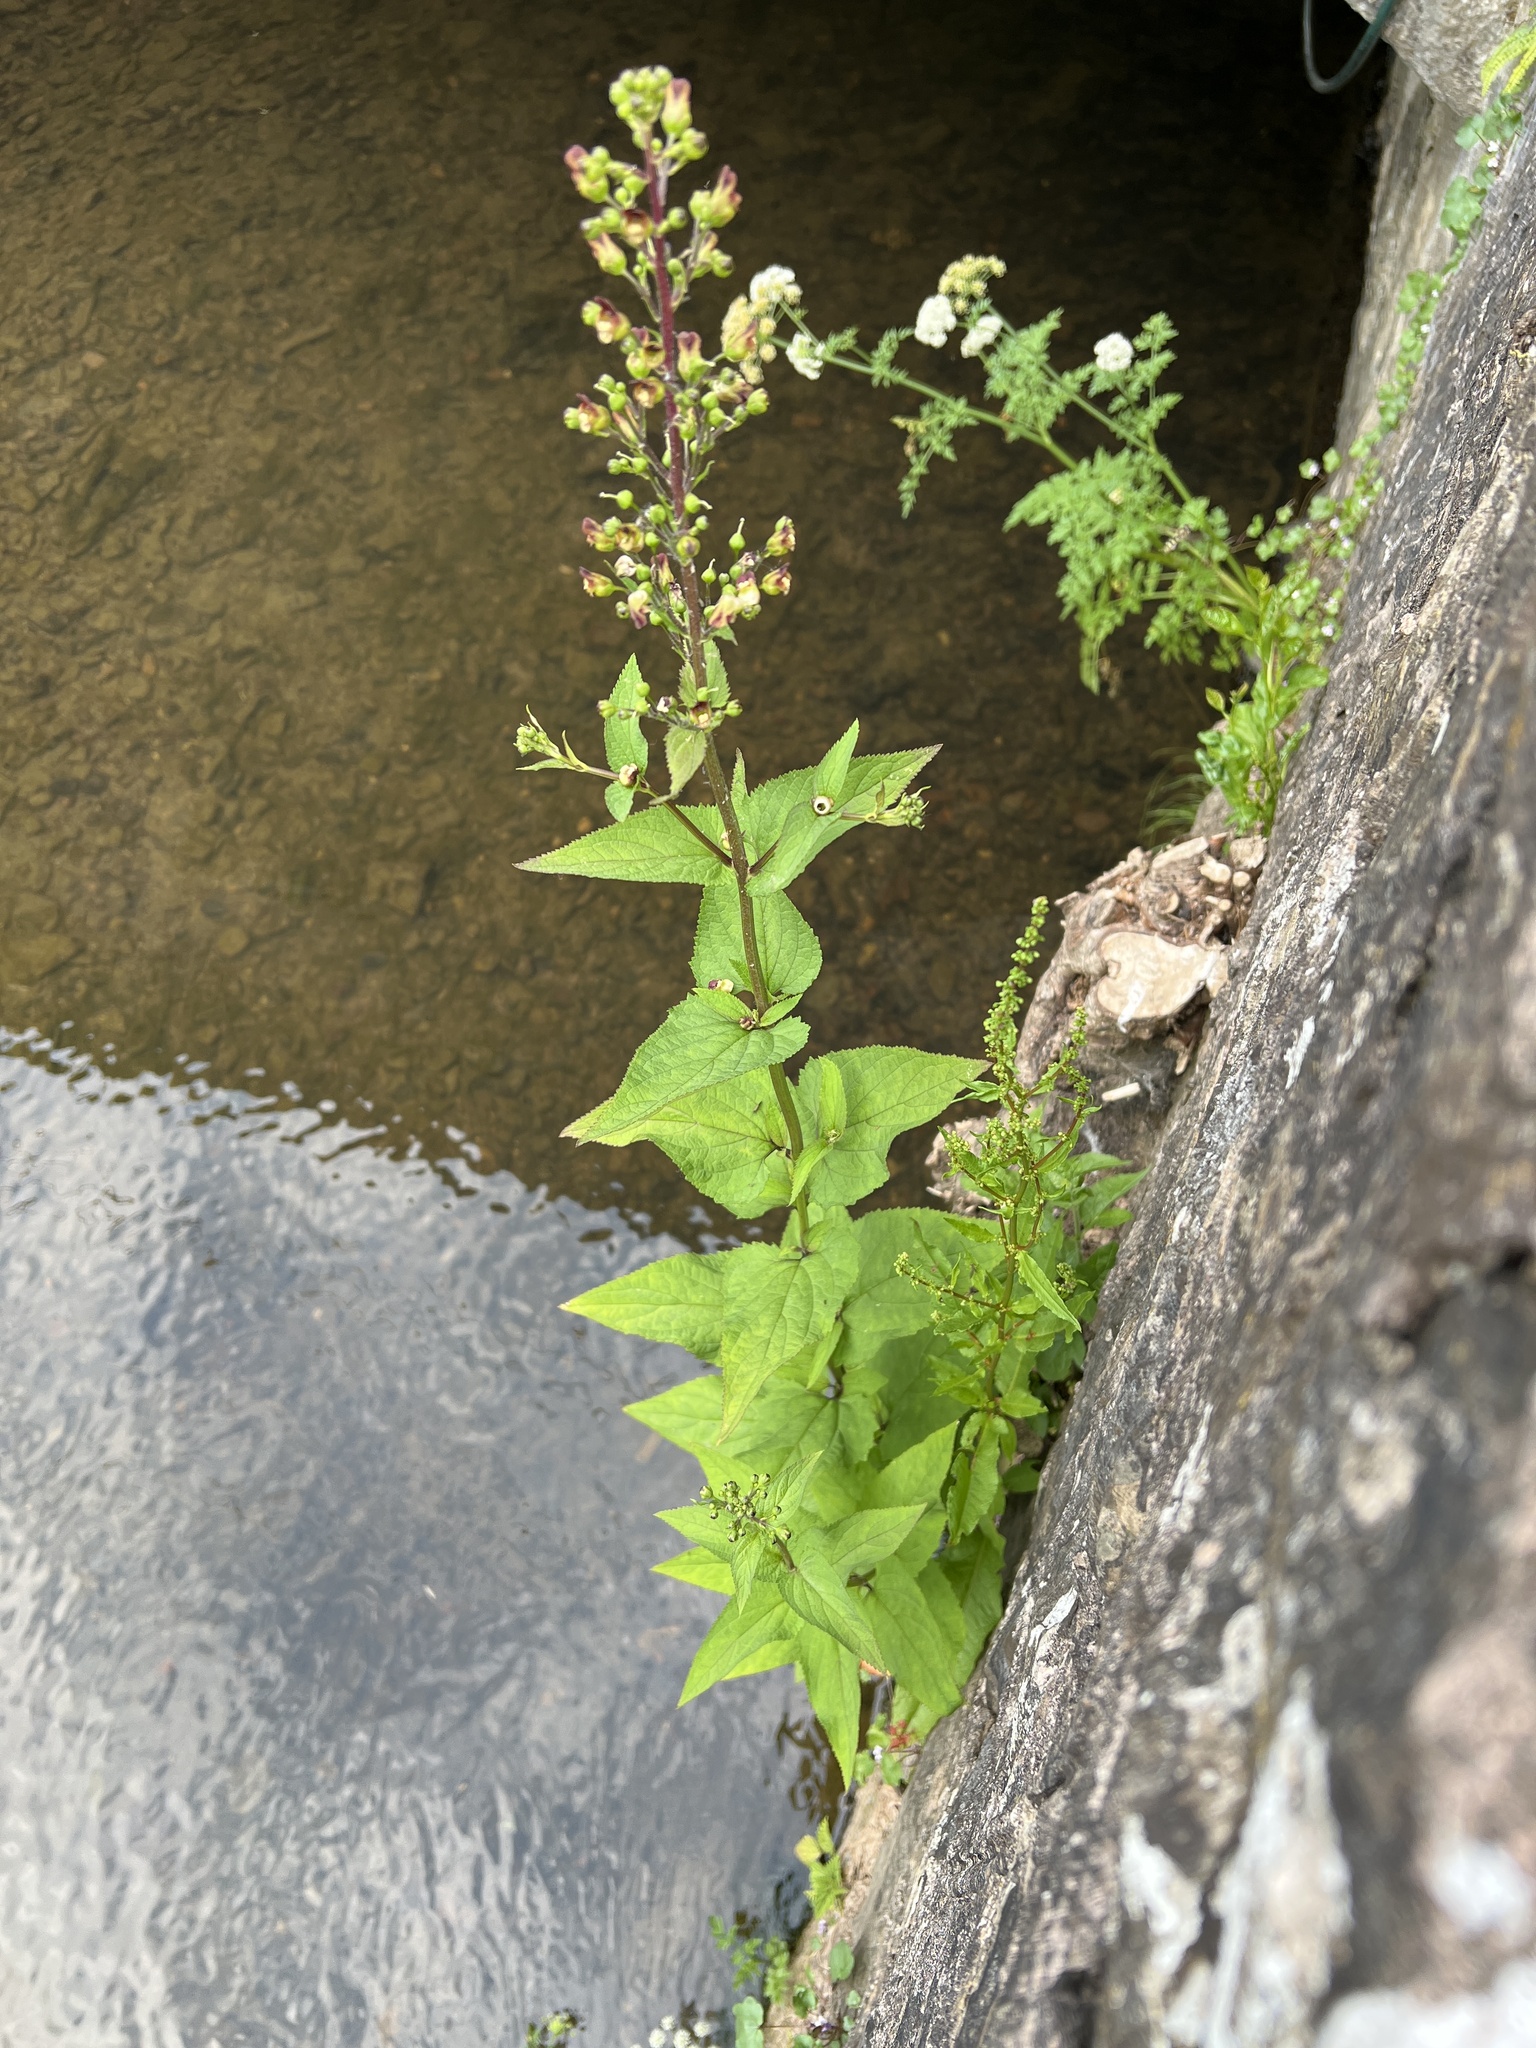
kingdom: Plantae
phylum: Tracheophyta
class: Magnoliopsida
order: Lamiales
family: Scrophulariaceae
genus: Scrophularia
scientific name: Scrophularia nodosa
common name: Common figwort
